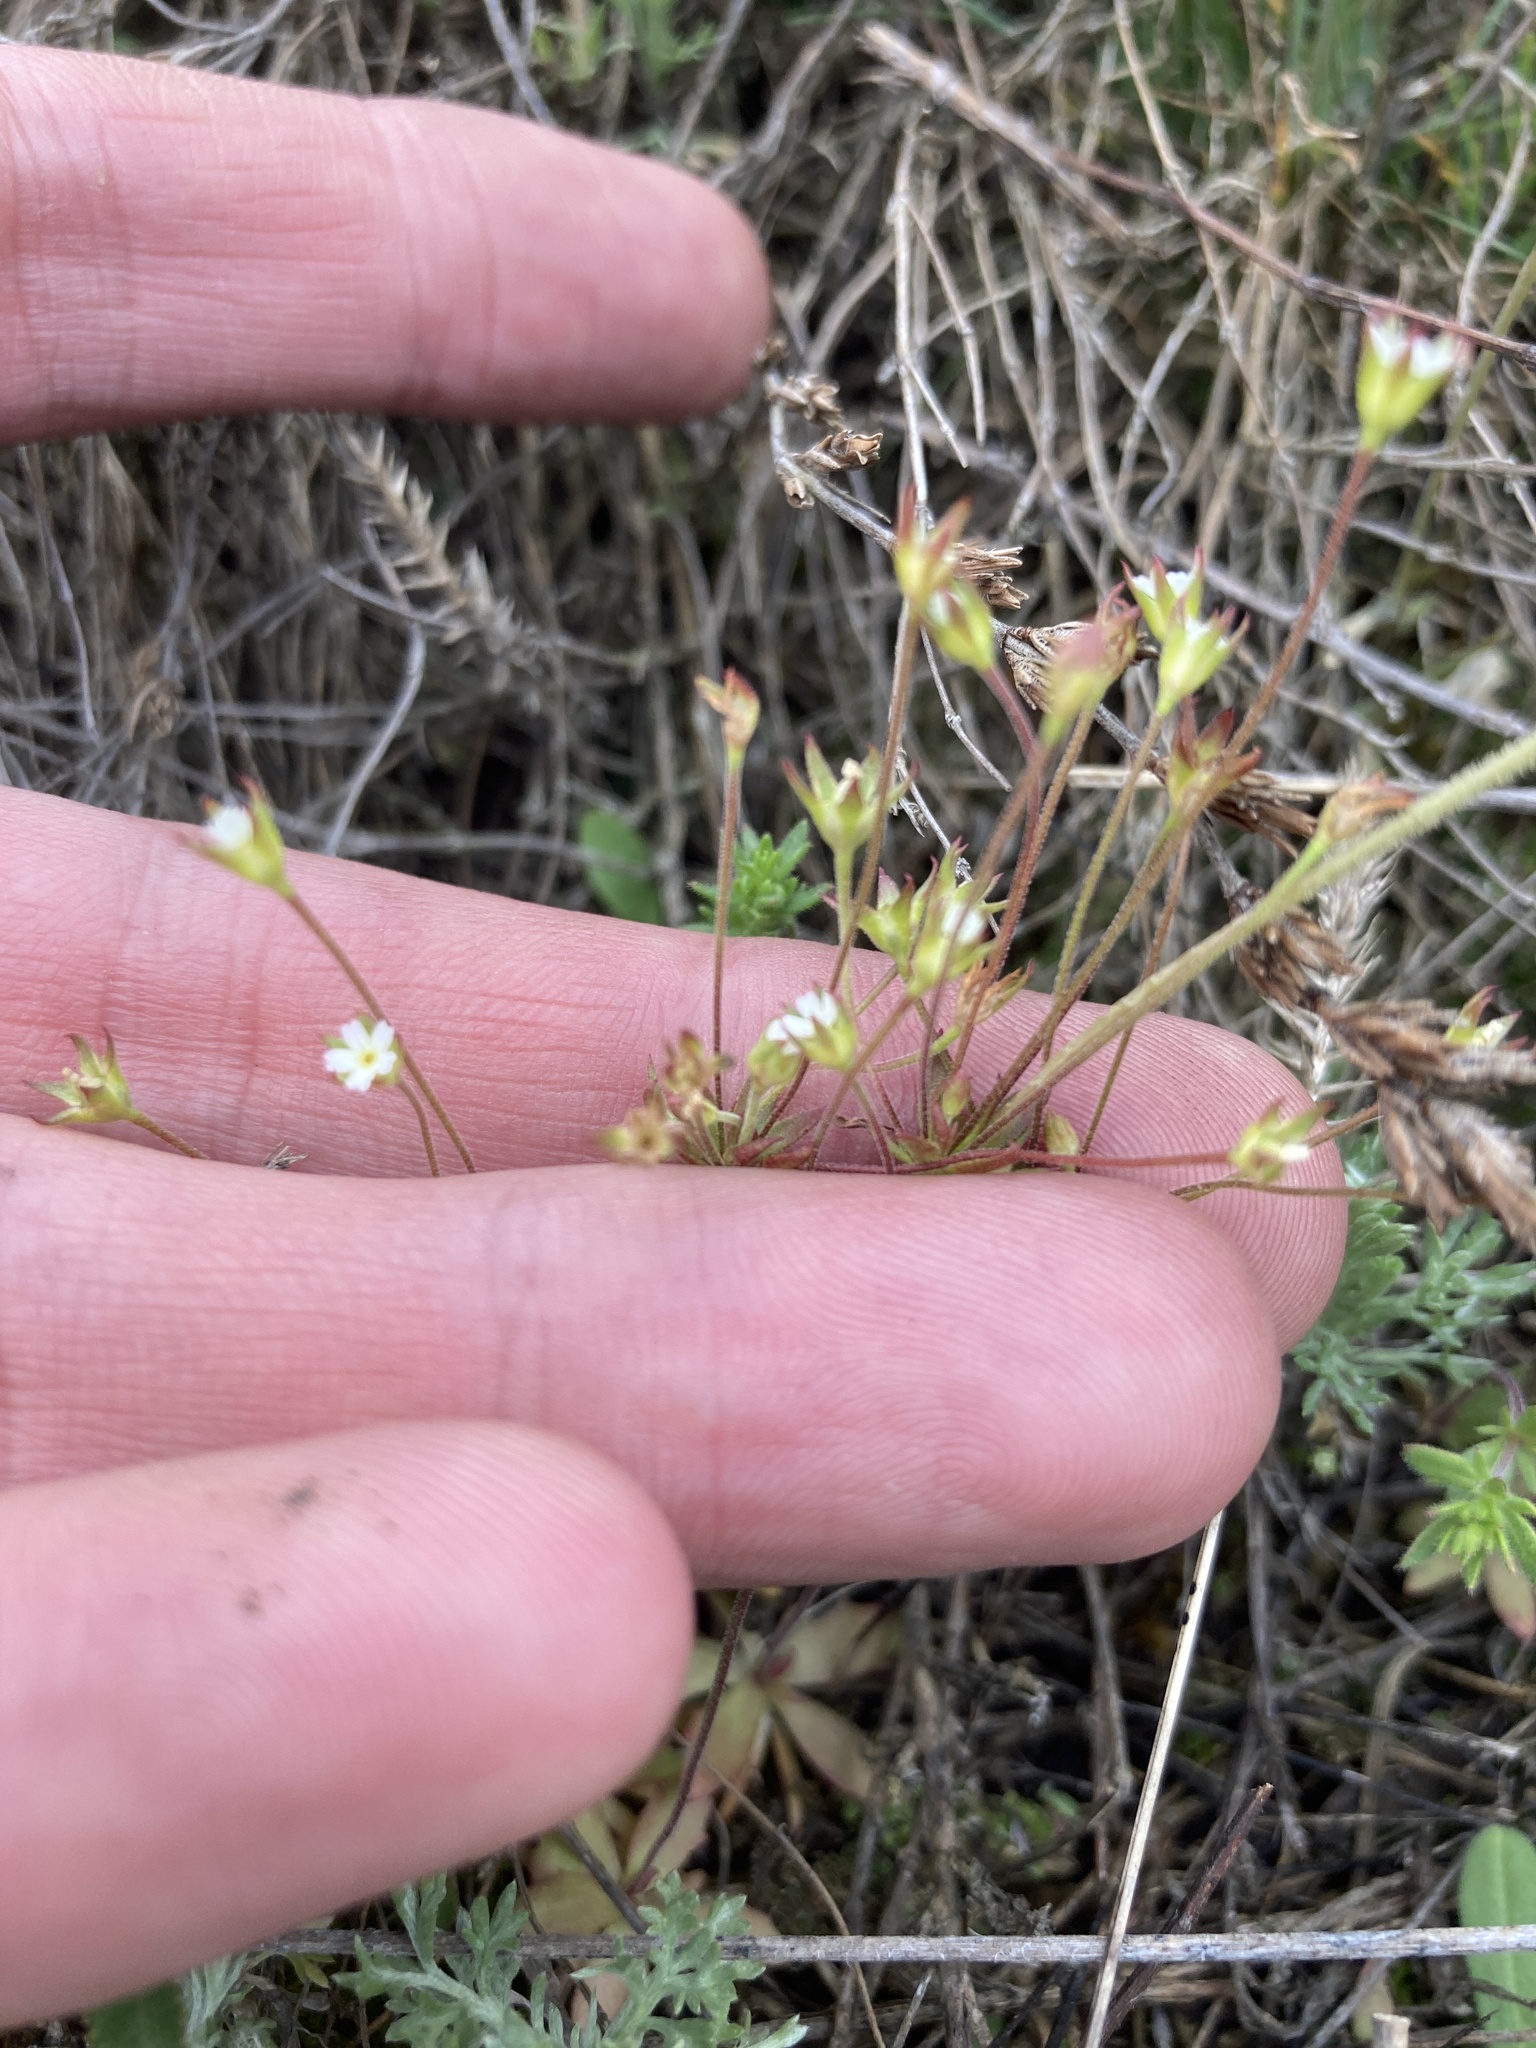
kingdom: Plantae
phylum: Tracheophyta
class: Magnoliopsida
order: Ericales
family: Primulaceae
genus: Androsace
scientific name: Androsace elongata
